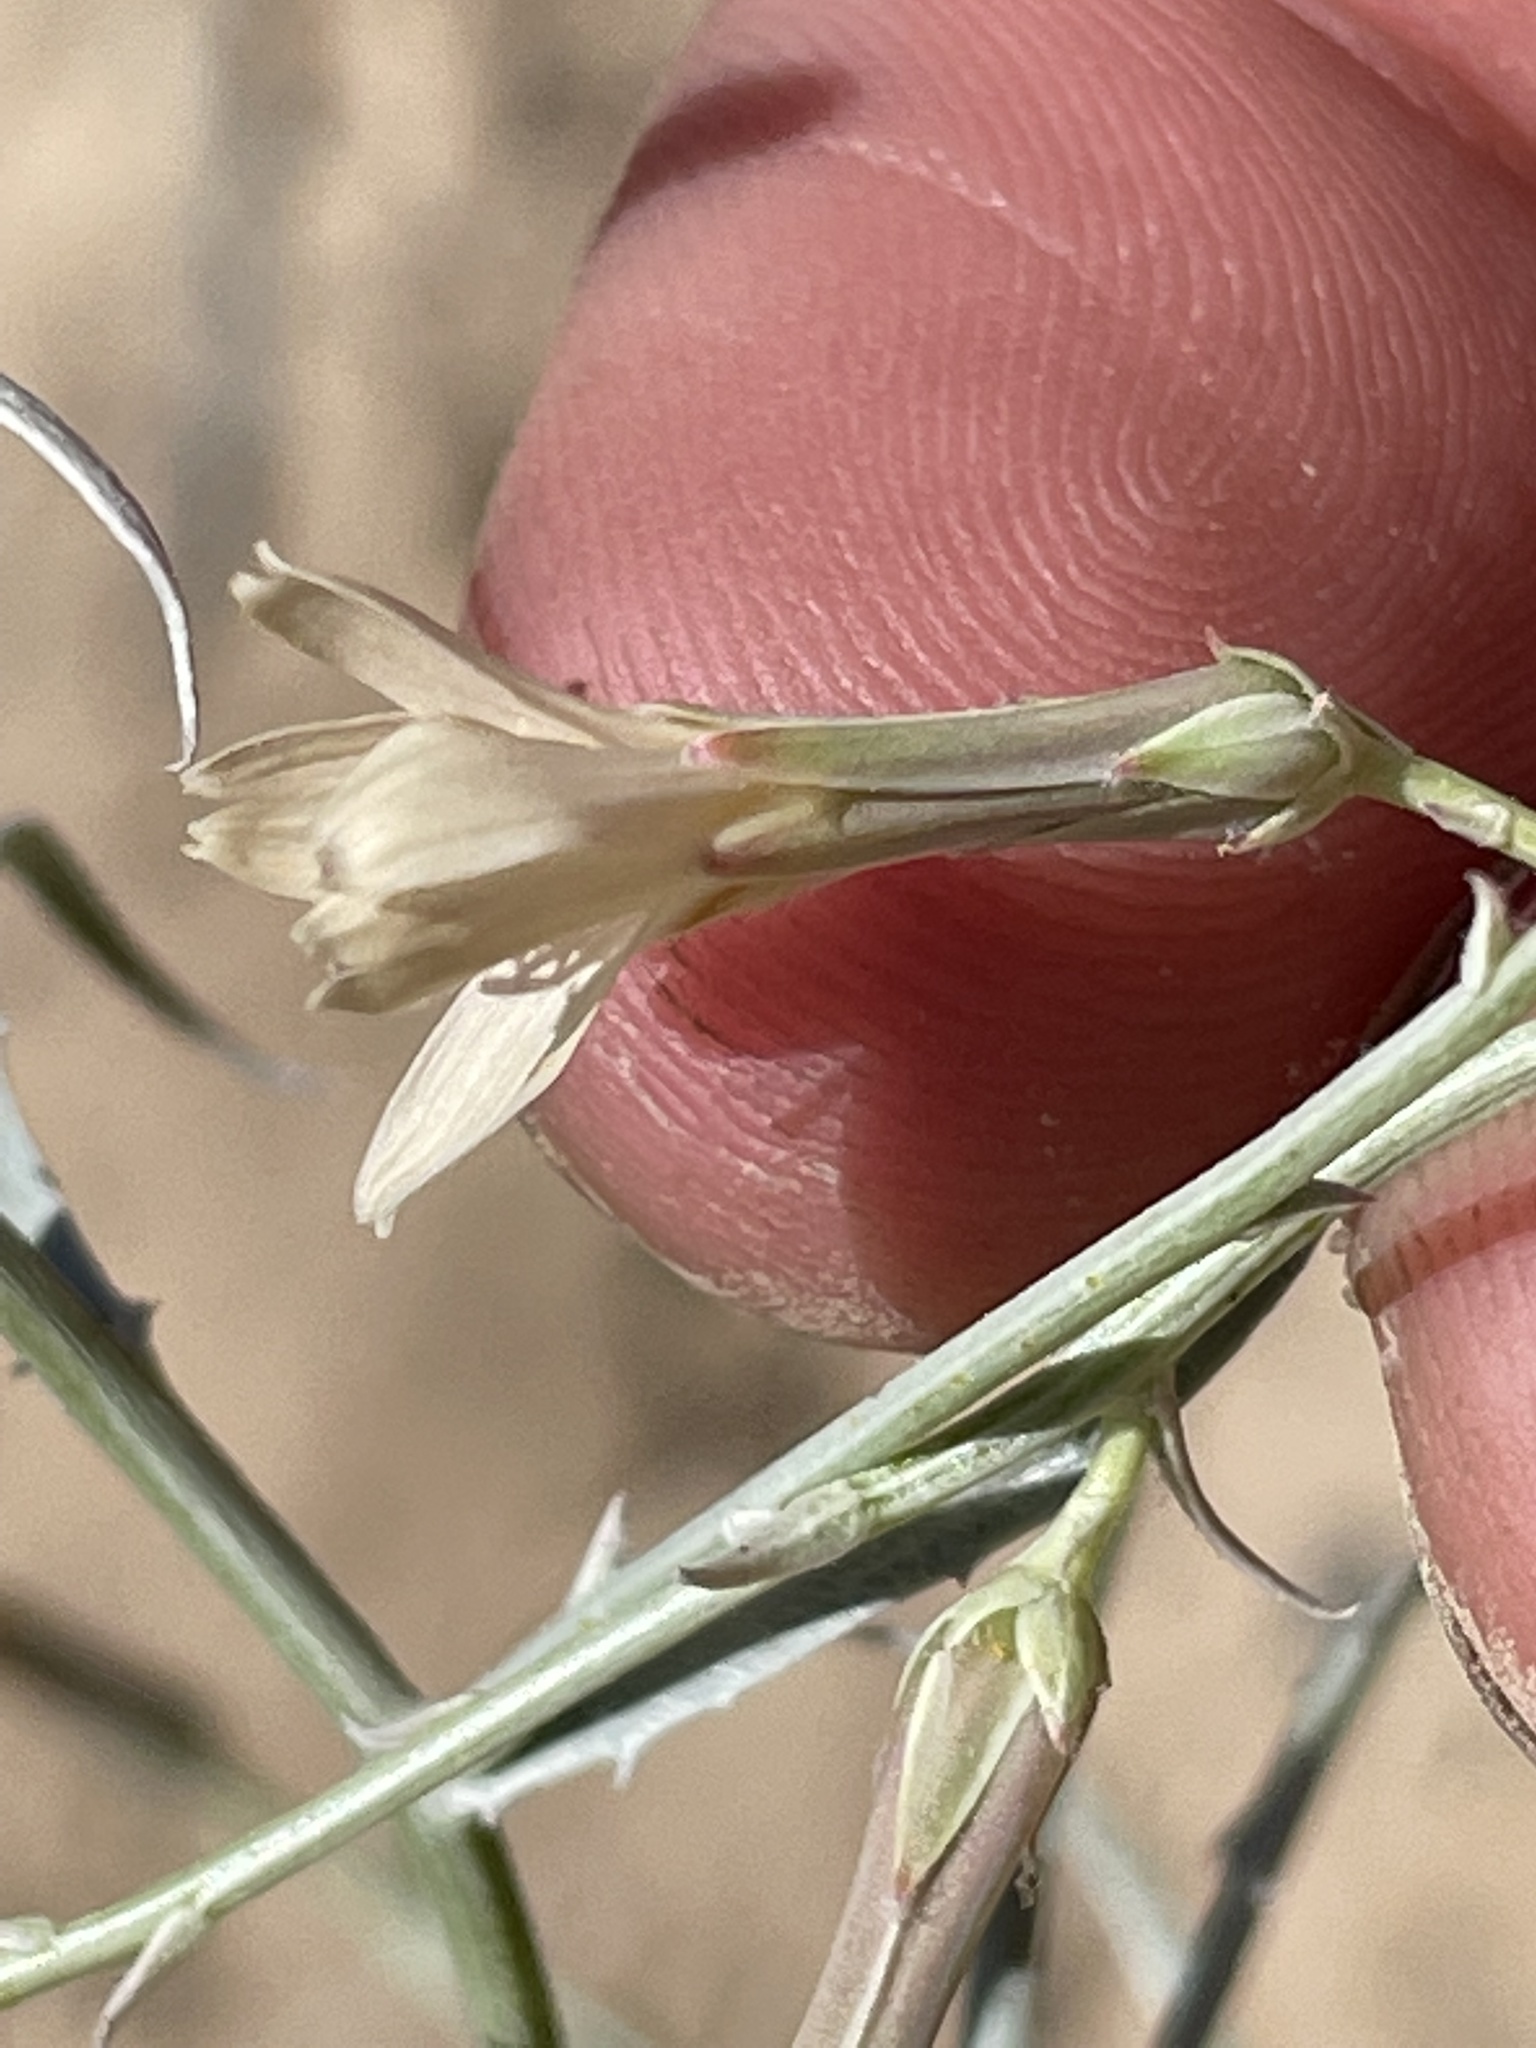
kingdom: Plantae
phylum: Tracheophyta
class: Magnoliopsida
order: Asterales
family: Asteraceae
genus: Stephanomeria
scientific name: Stephanomeria pauciflora
